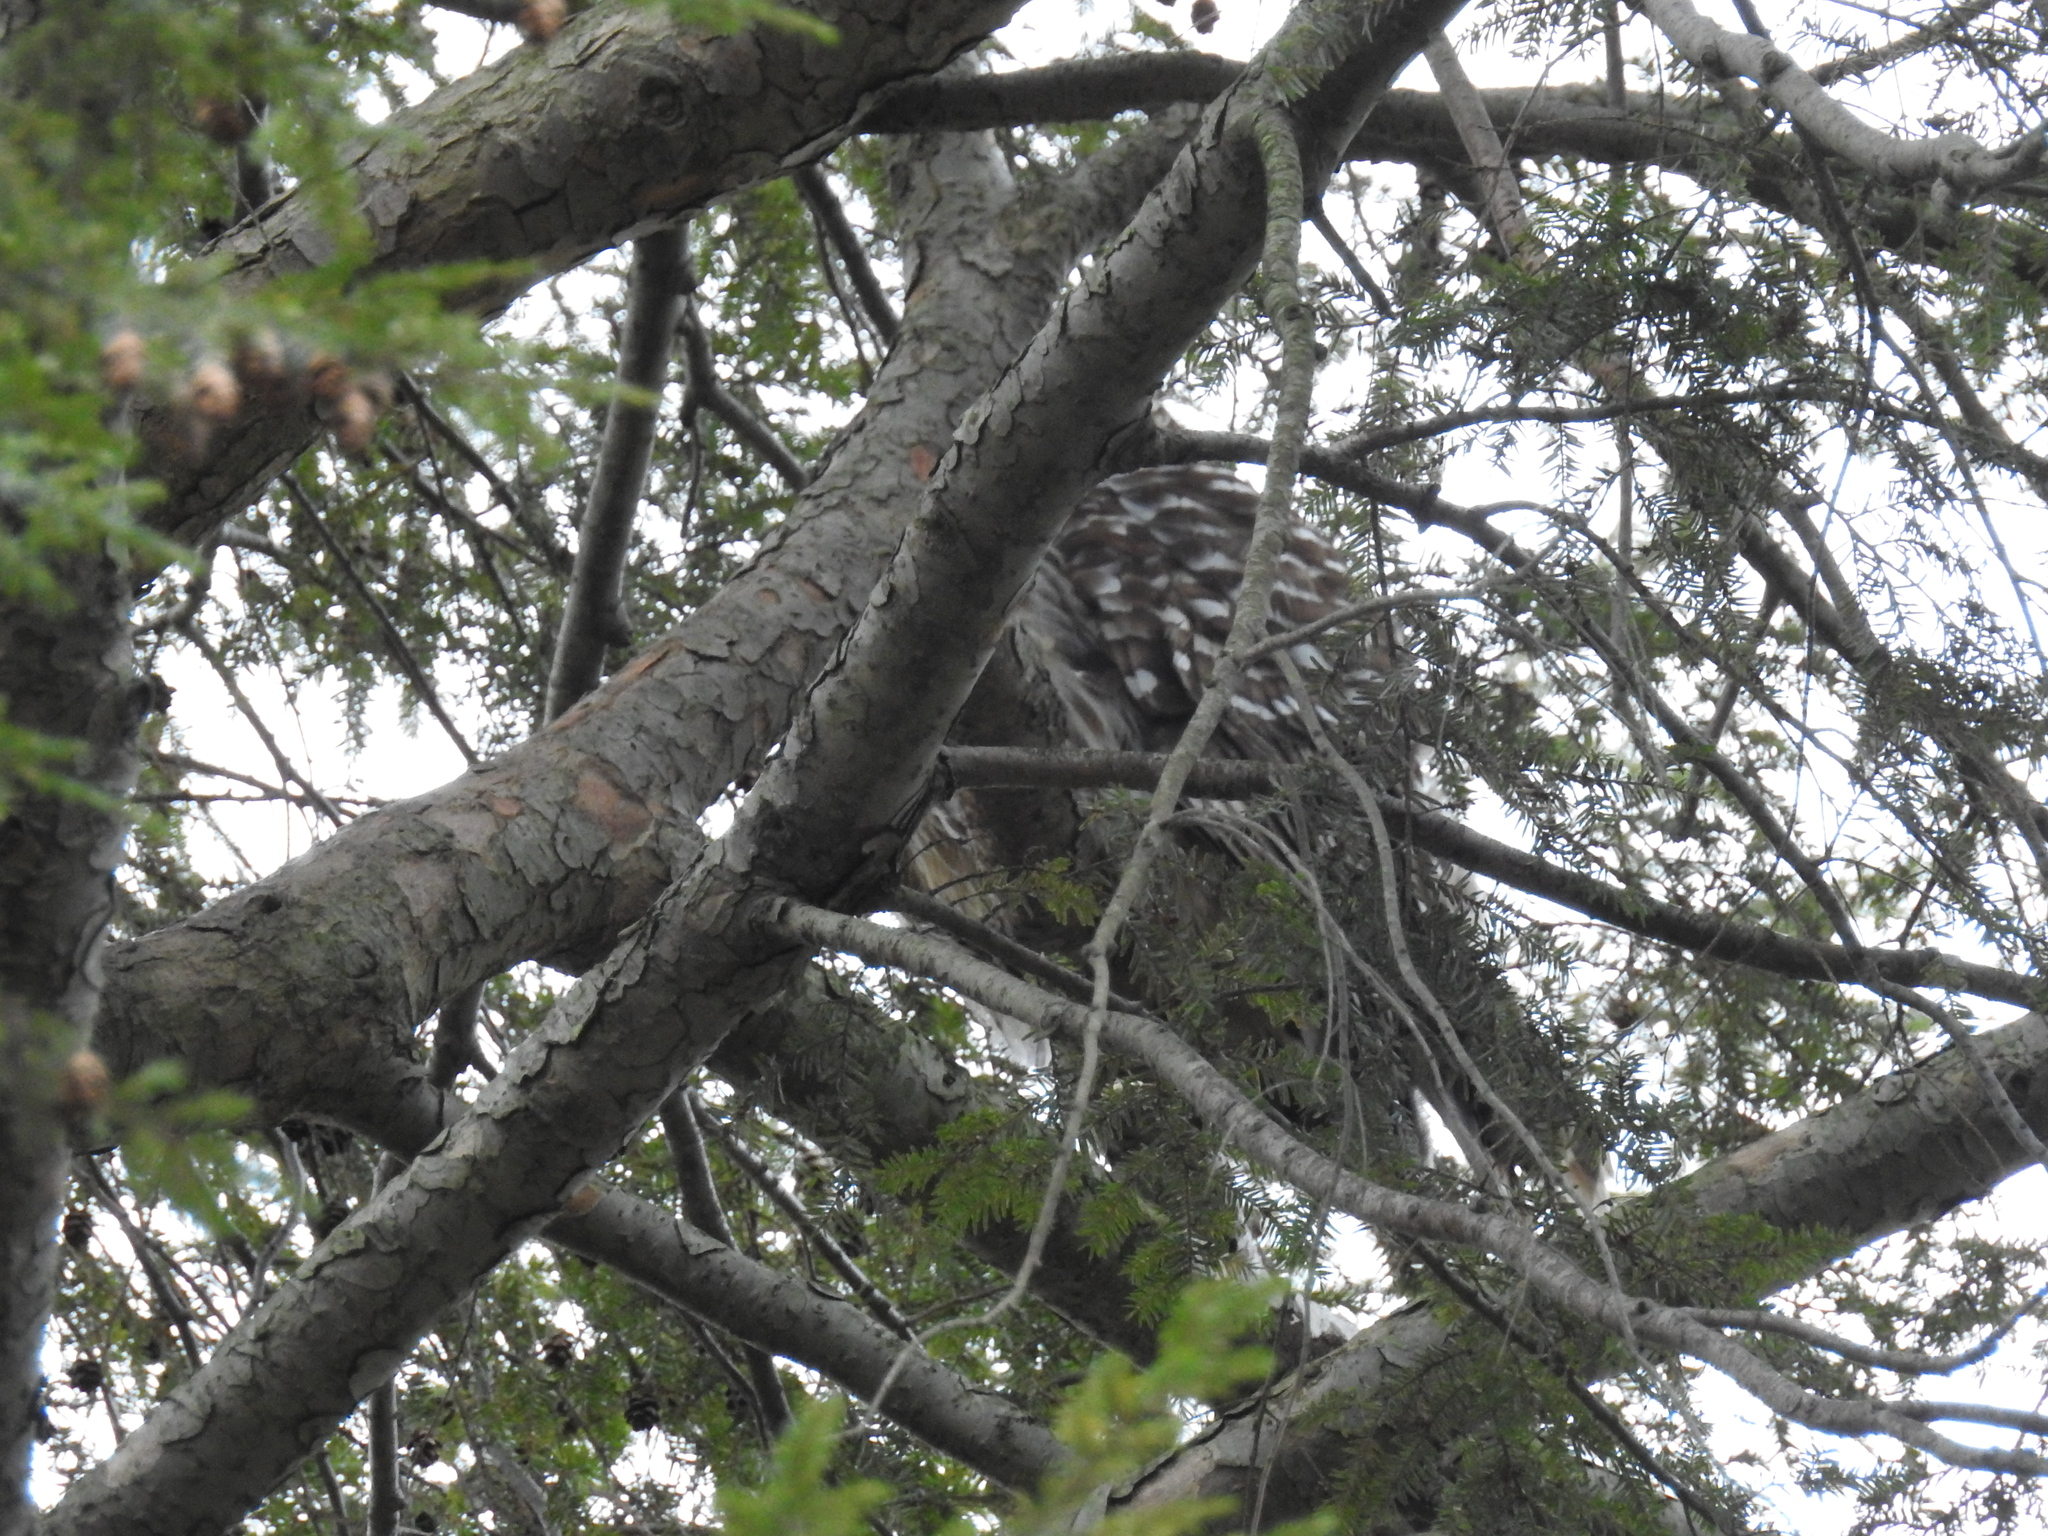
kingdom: Animalia
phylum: Chordata
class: Aves
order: Strigiformes
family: Strigidae
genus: Strix
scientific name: Strix varia
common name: Barred owl
